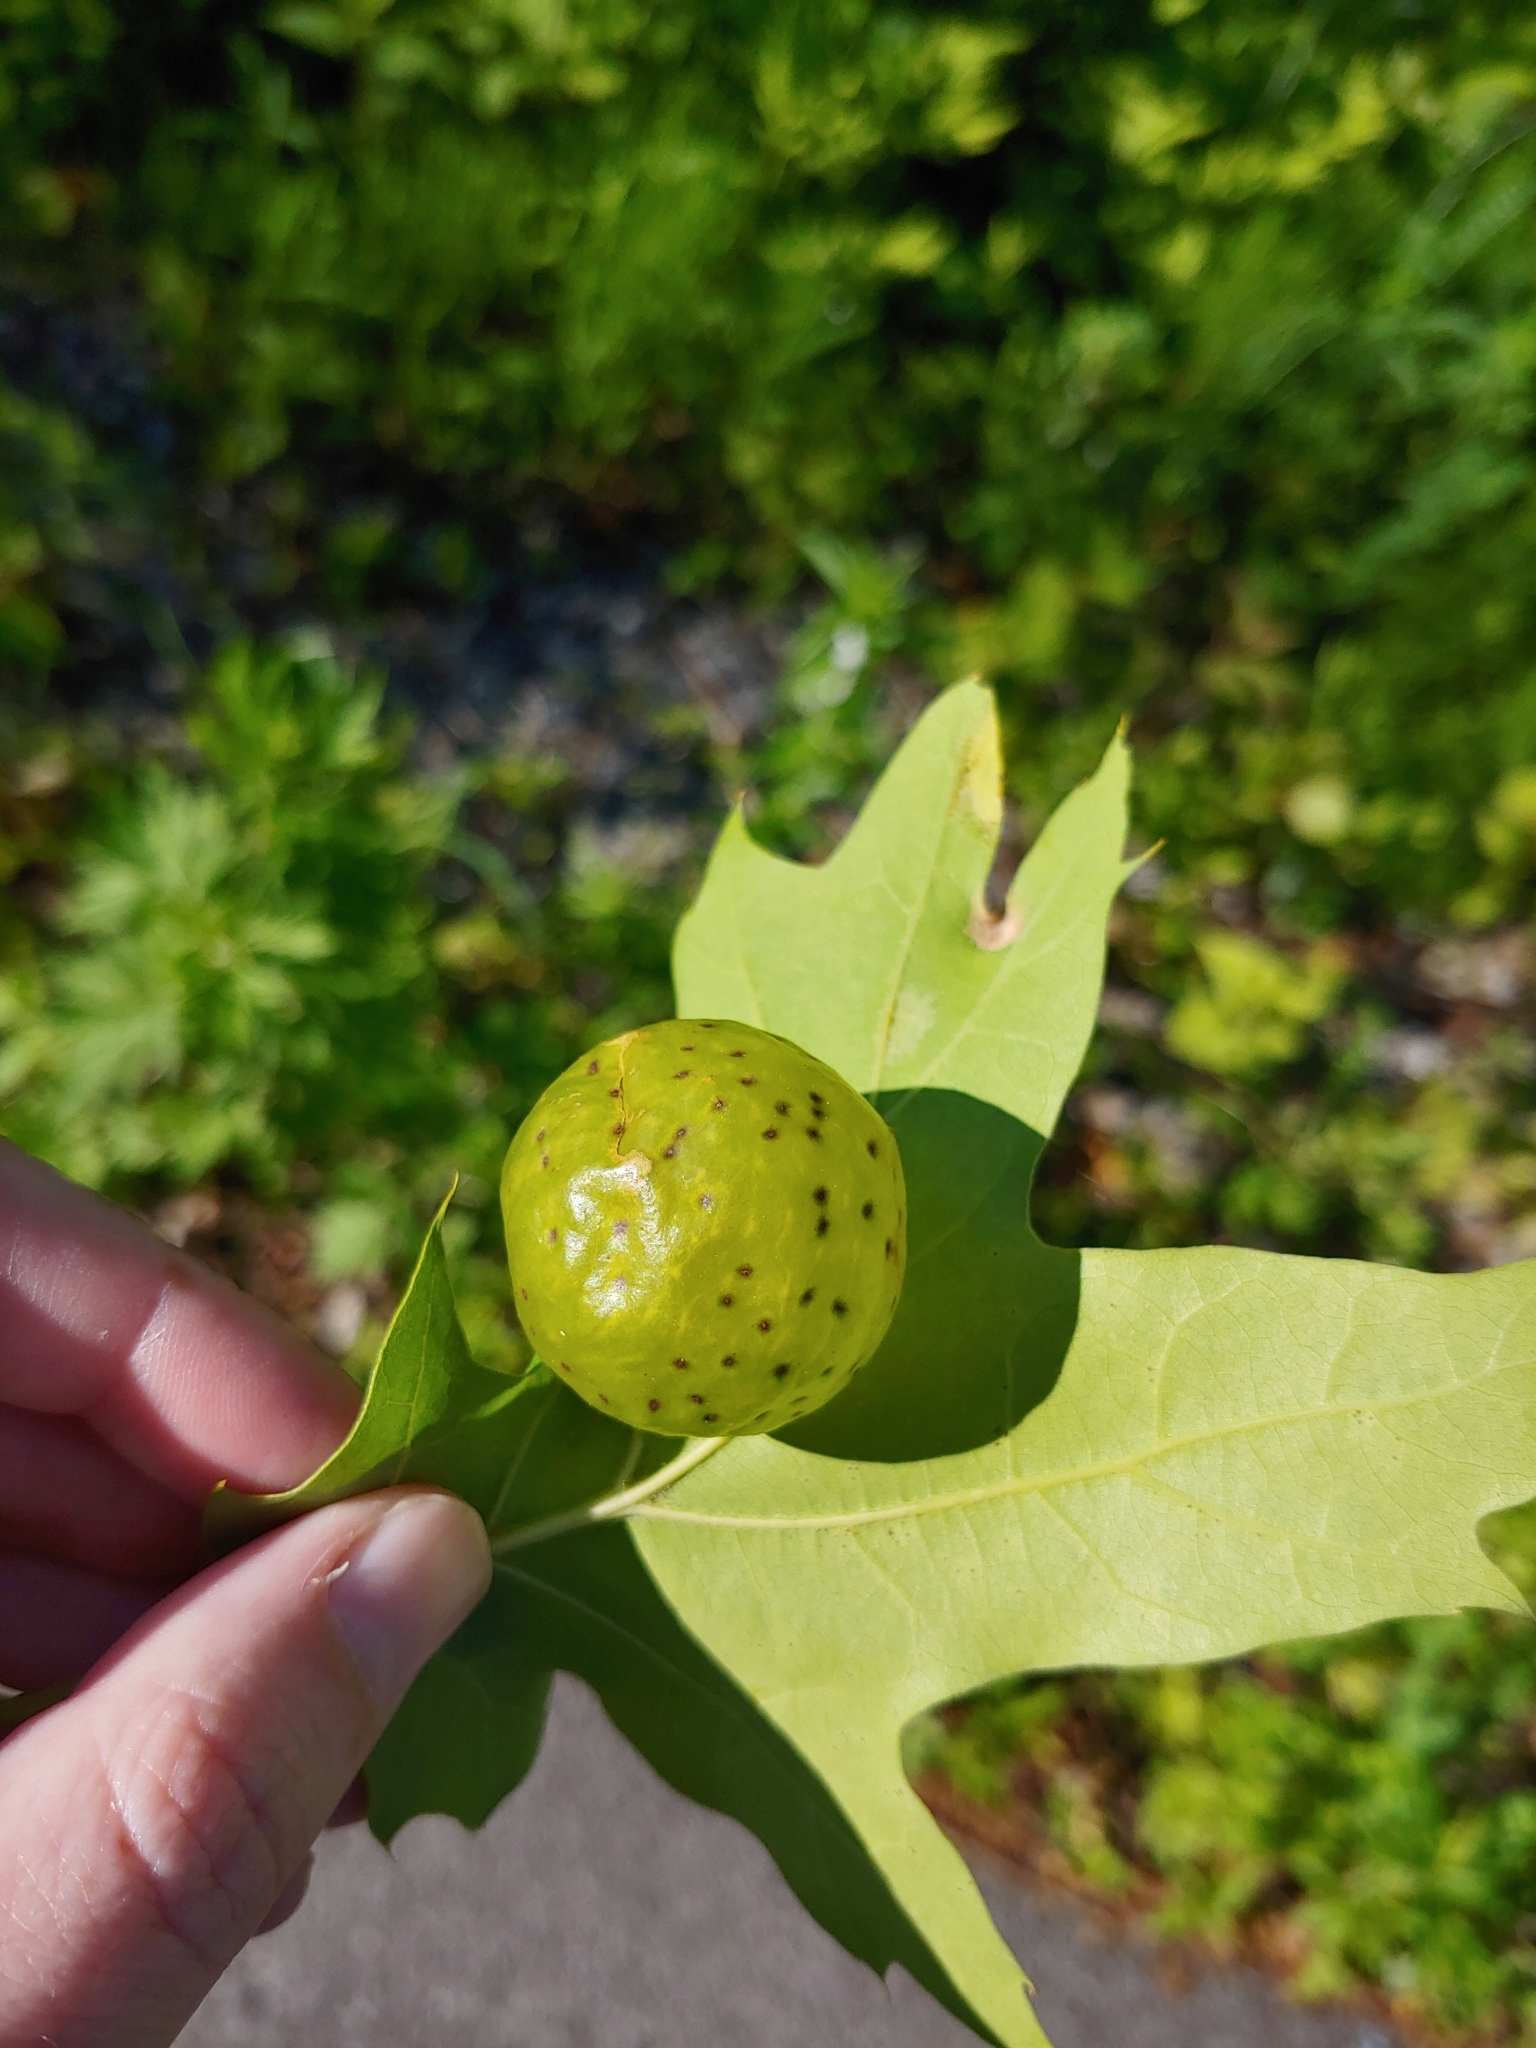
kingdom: Animalia
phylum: Arthropoda
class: Insecta
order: Hymenoptera
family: Cynipidae
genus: Amphibolips
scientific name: Amphibolips
